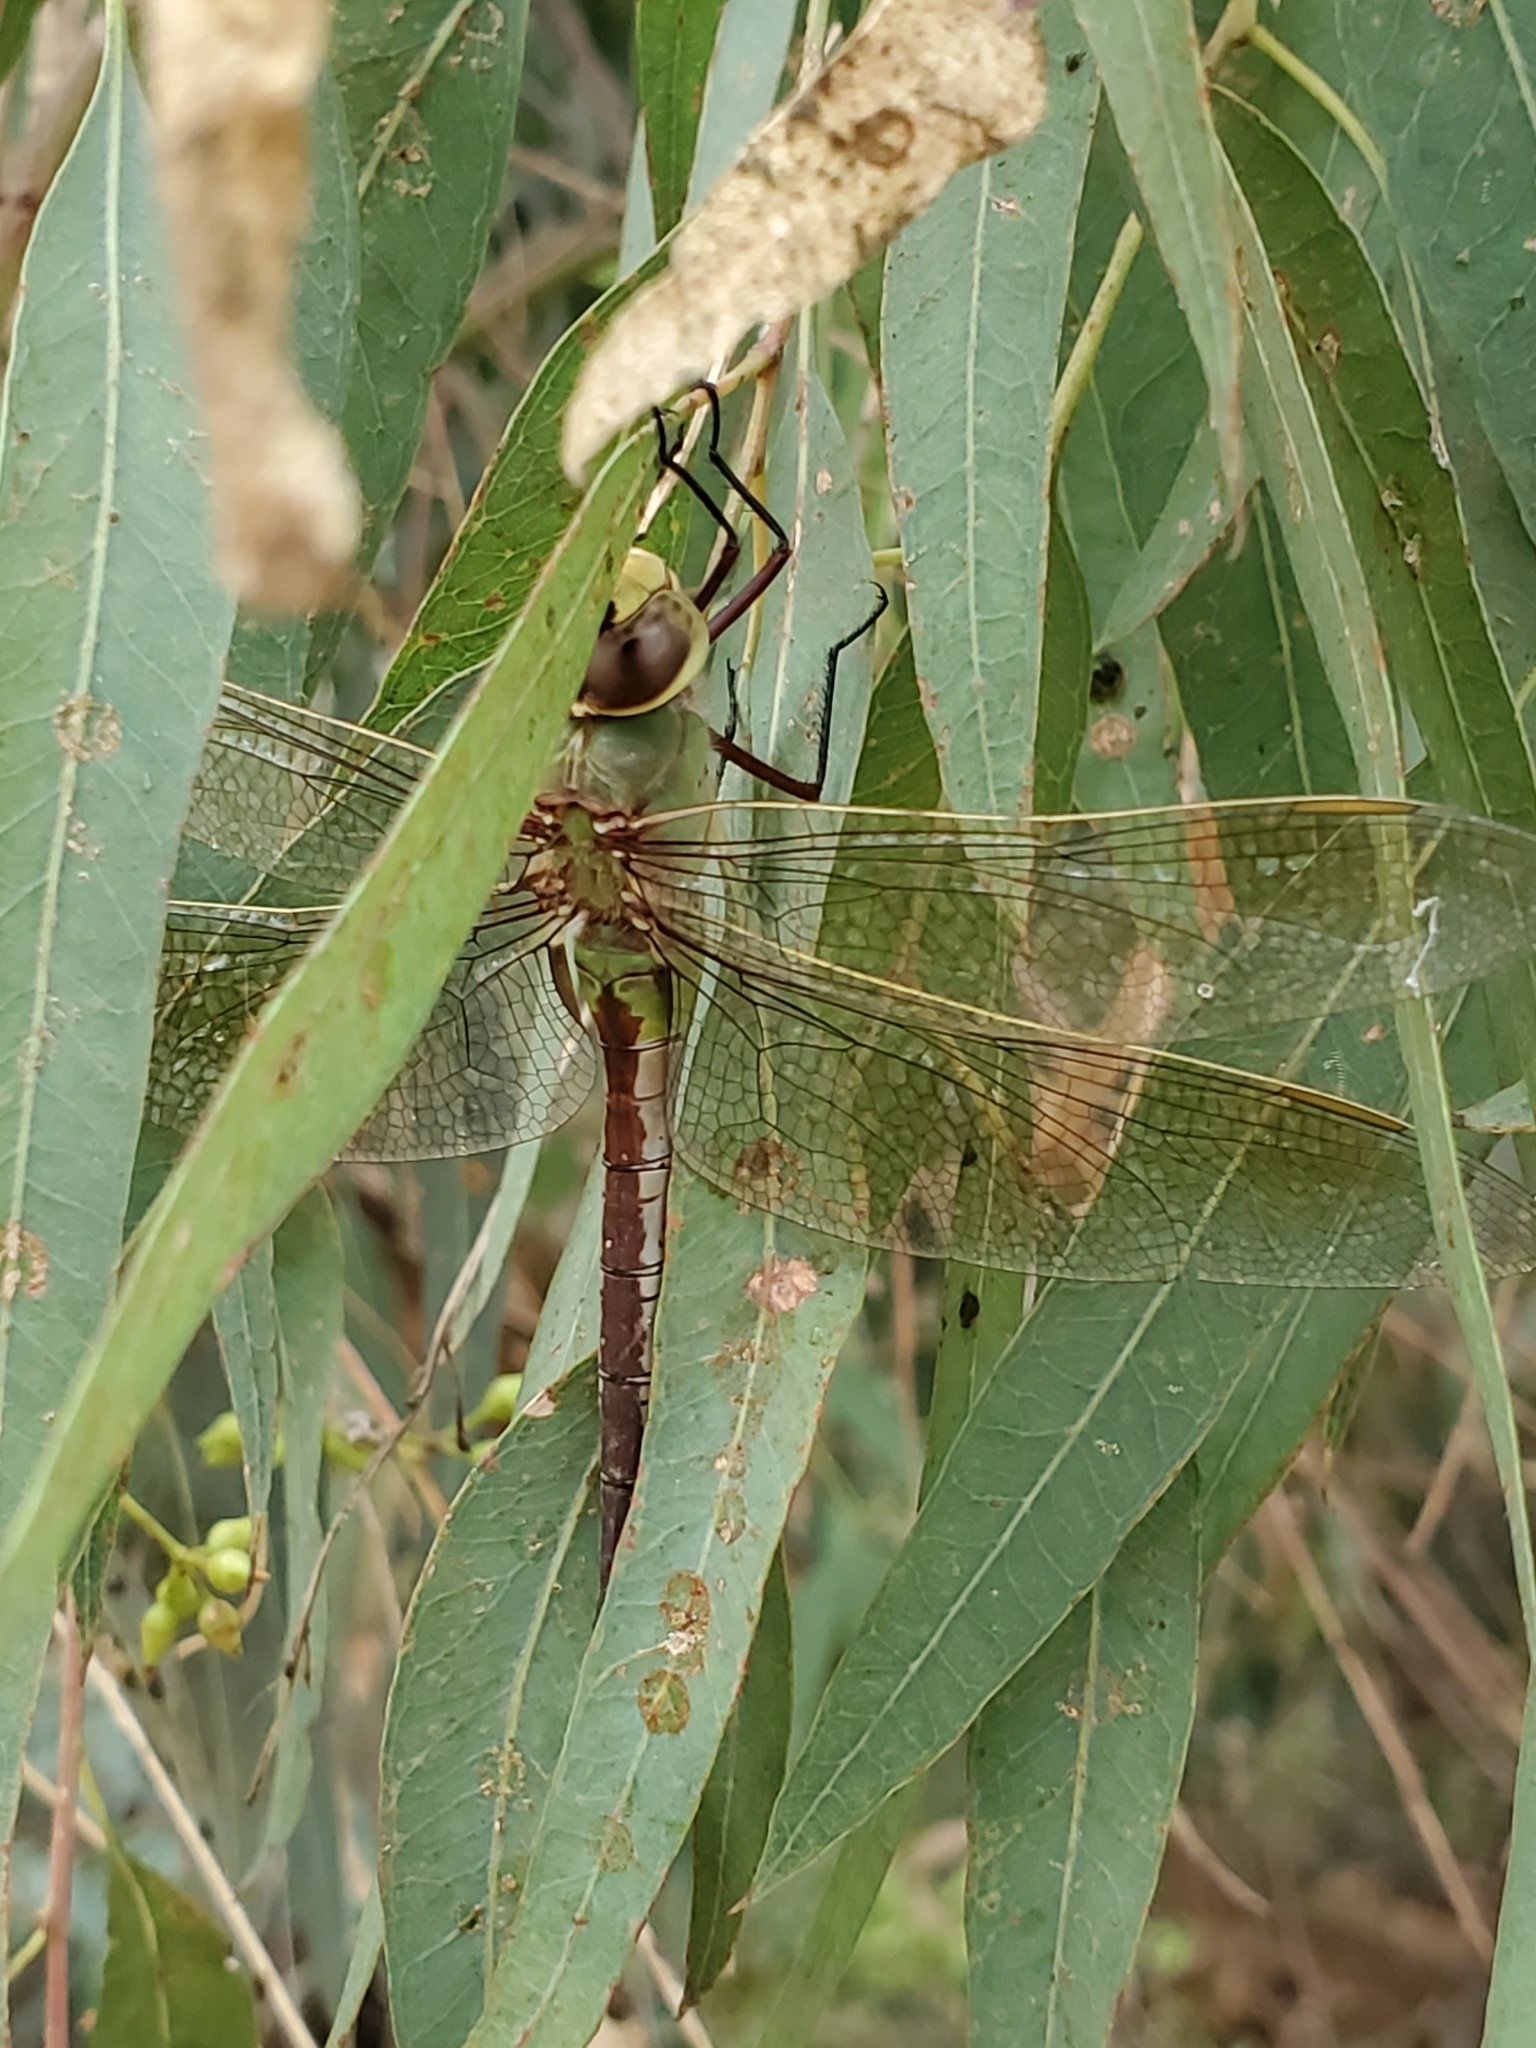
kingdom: Animalia
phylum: Arthropoda
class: Insecta
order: Odonata
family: Aeshnidae
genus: Anax
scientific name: Anax junius
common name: Common green darner
